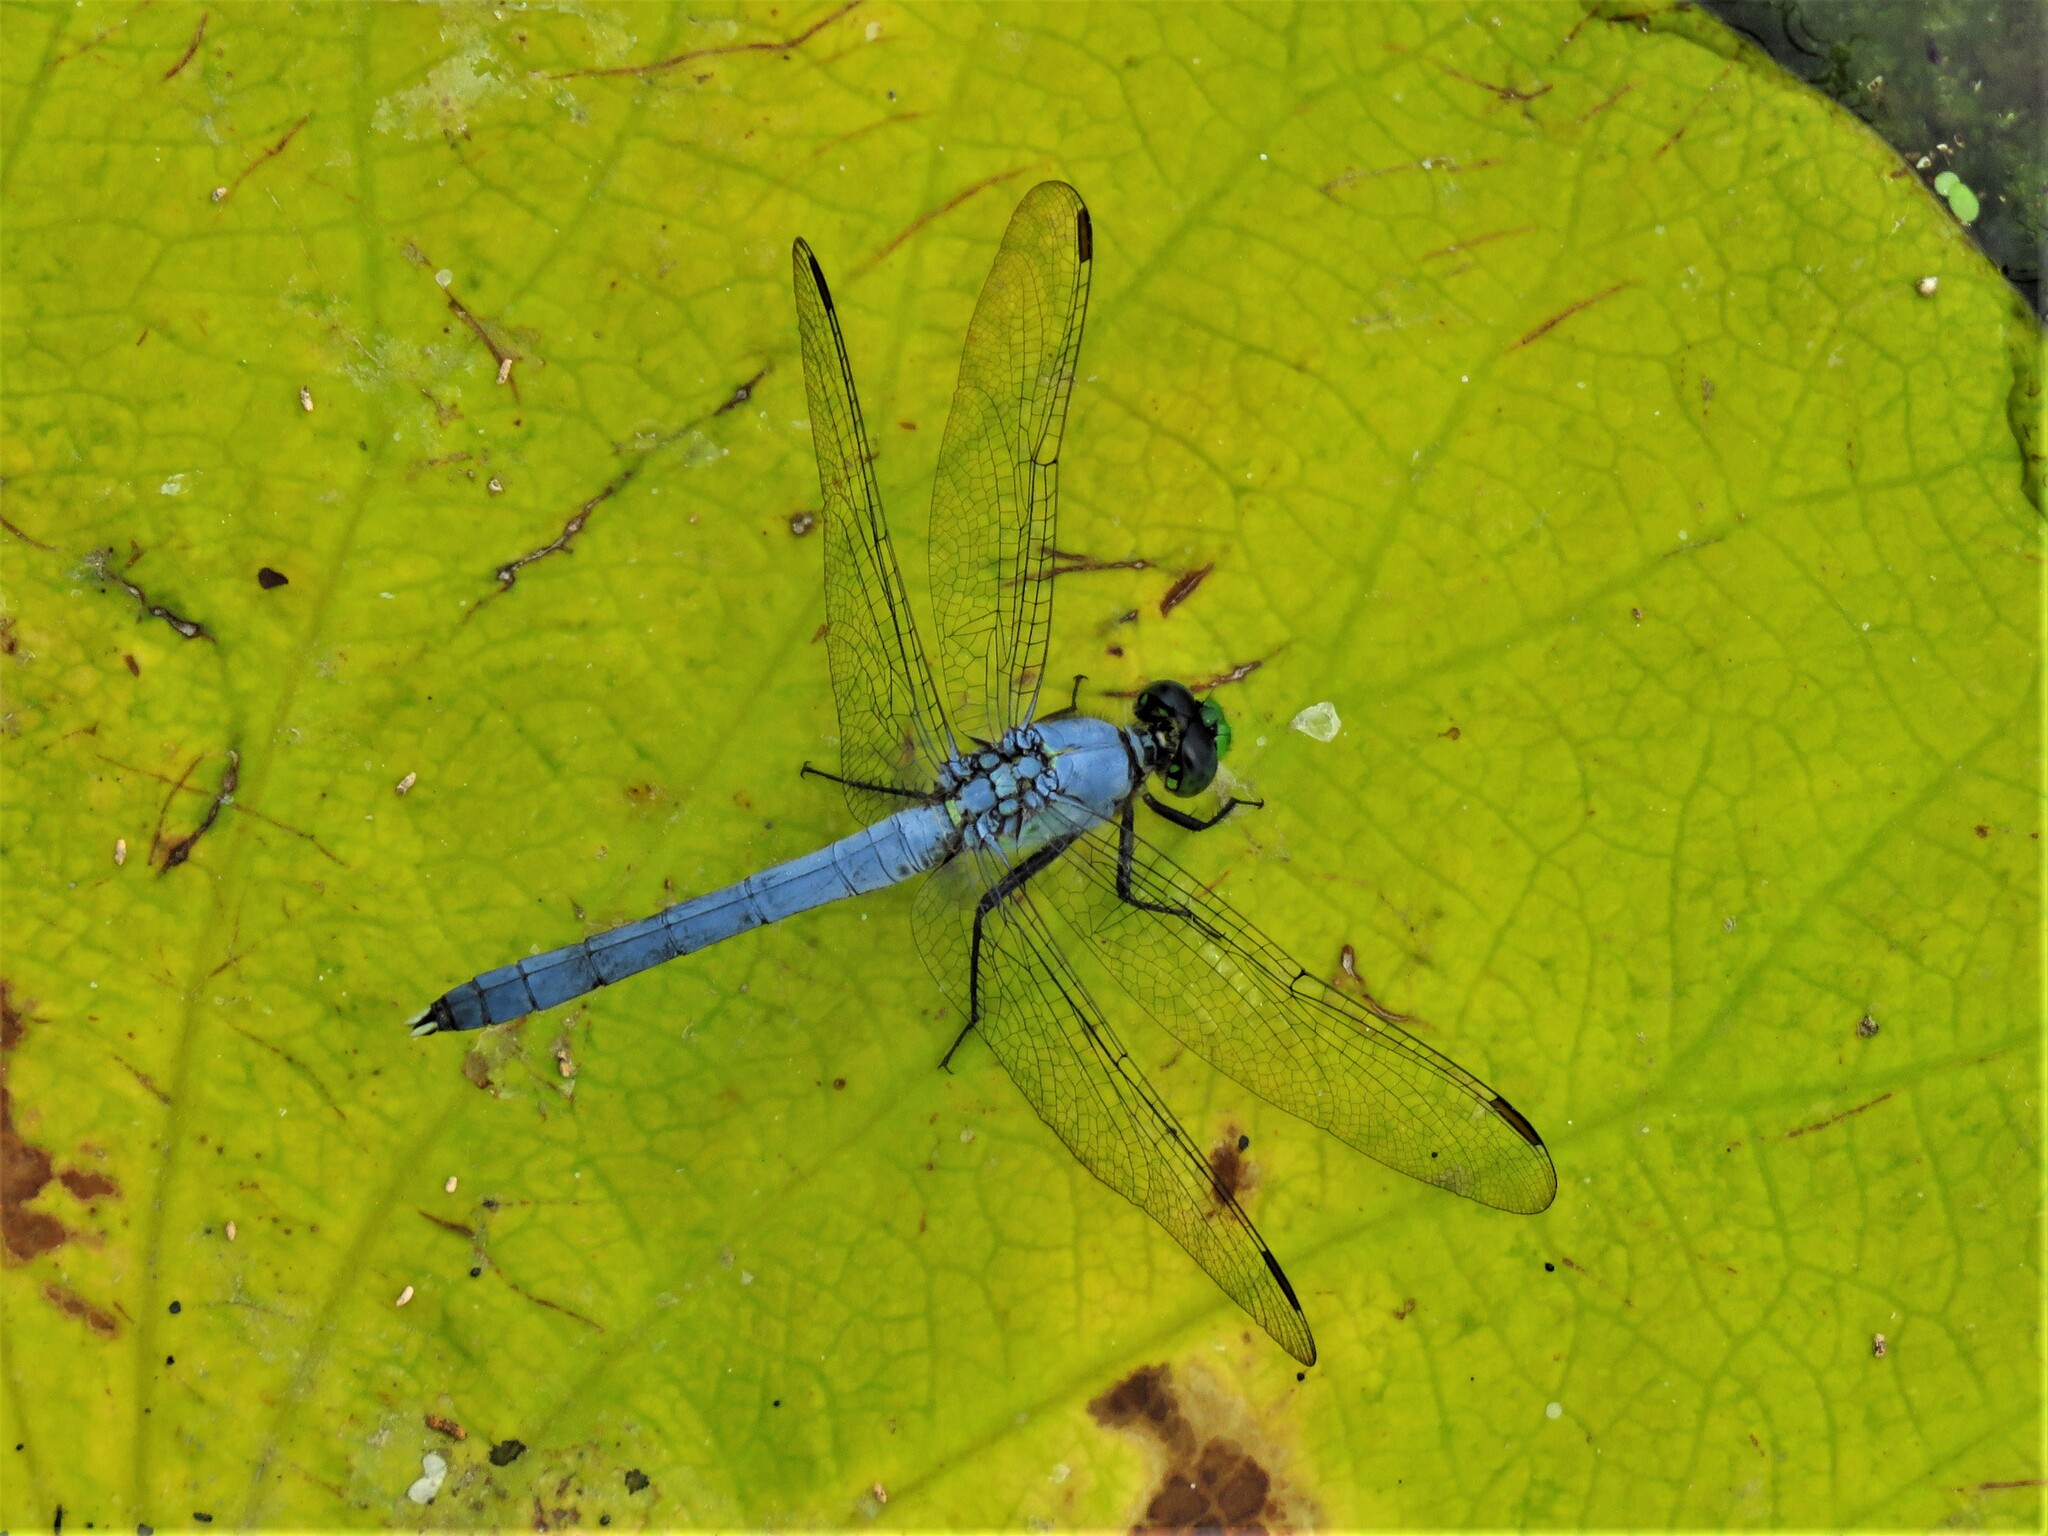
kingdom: Animalia
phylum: Arthropoda
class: Insecta
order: Odonata
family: Libellulidae
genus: Erythemis
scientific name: Erythemis simplicicollis
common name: Eastern pondhawk
